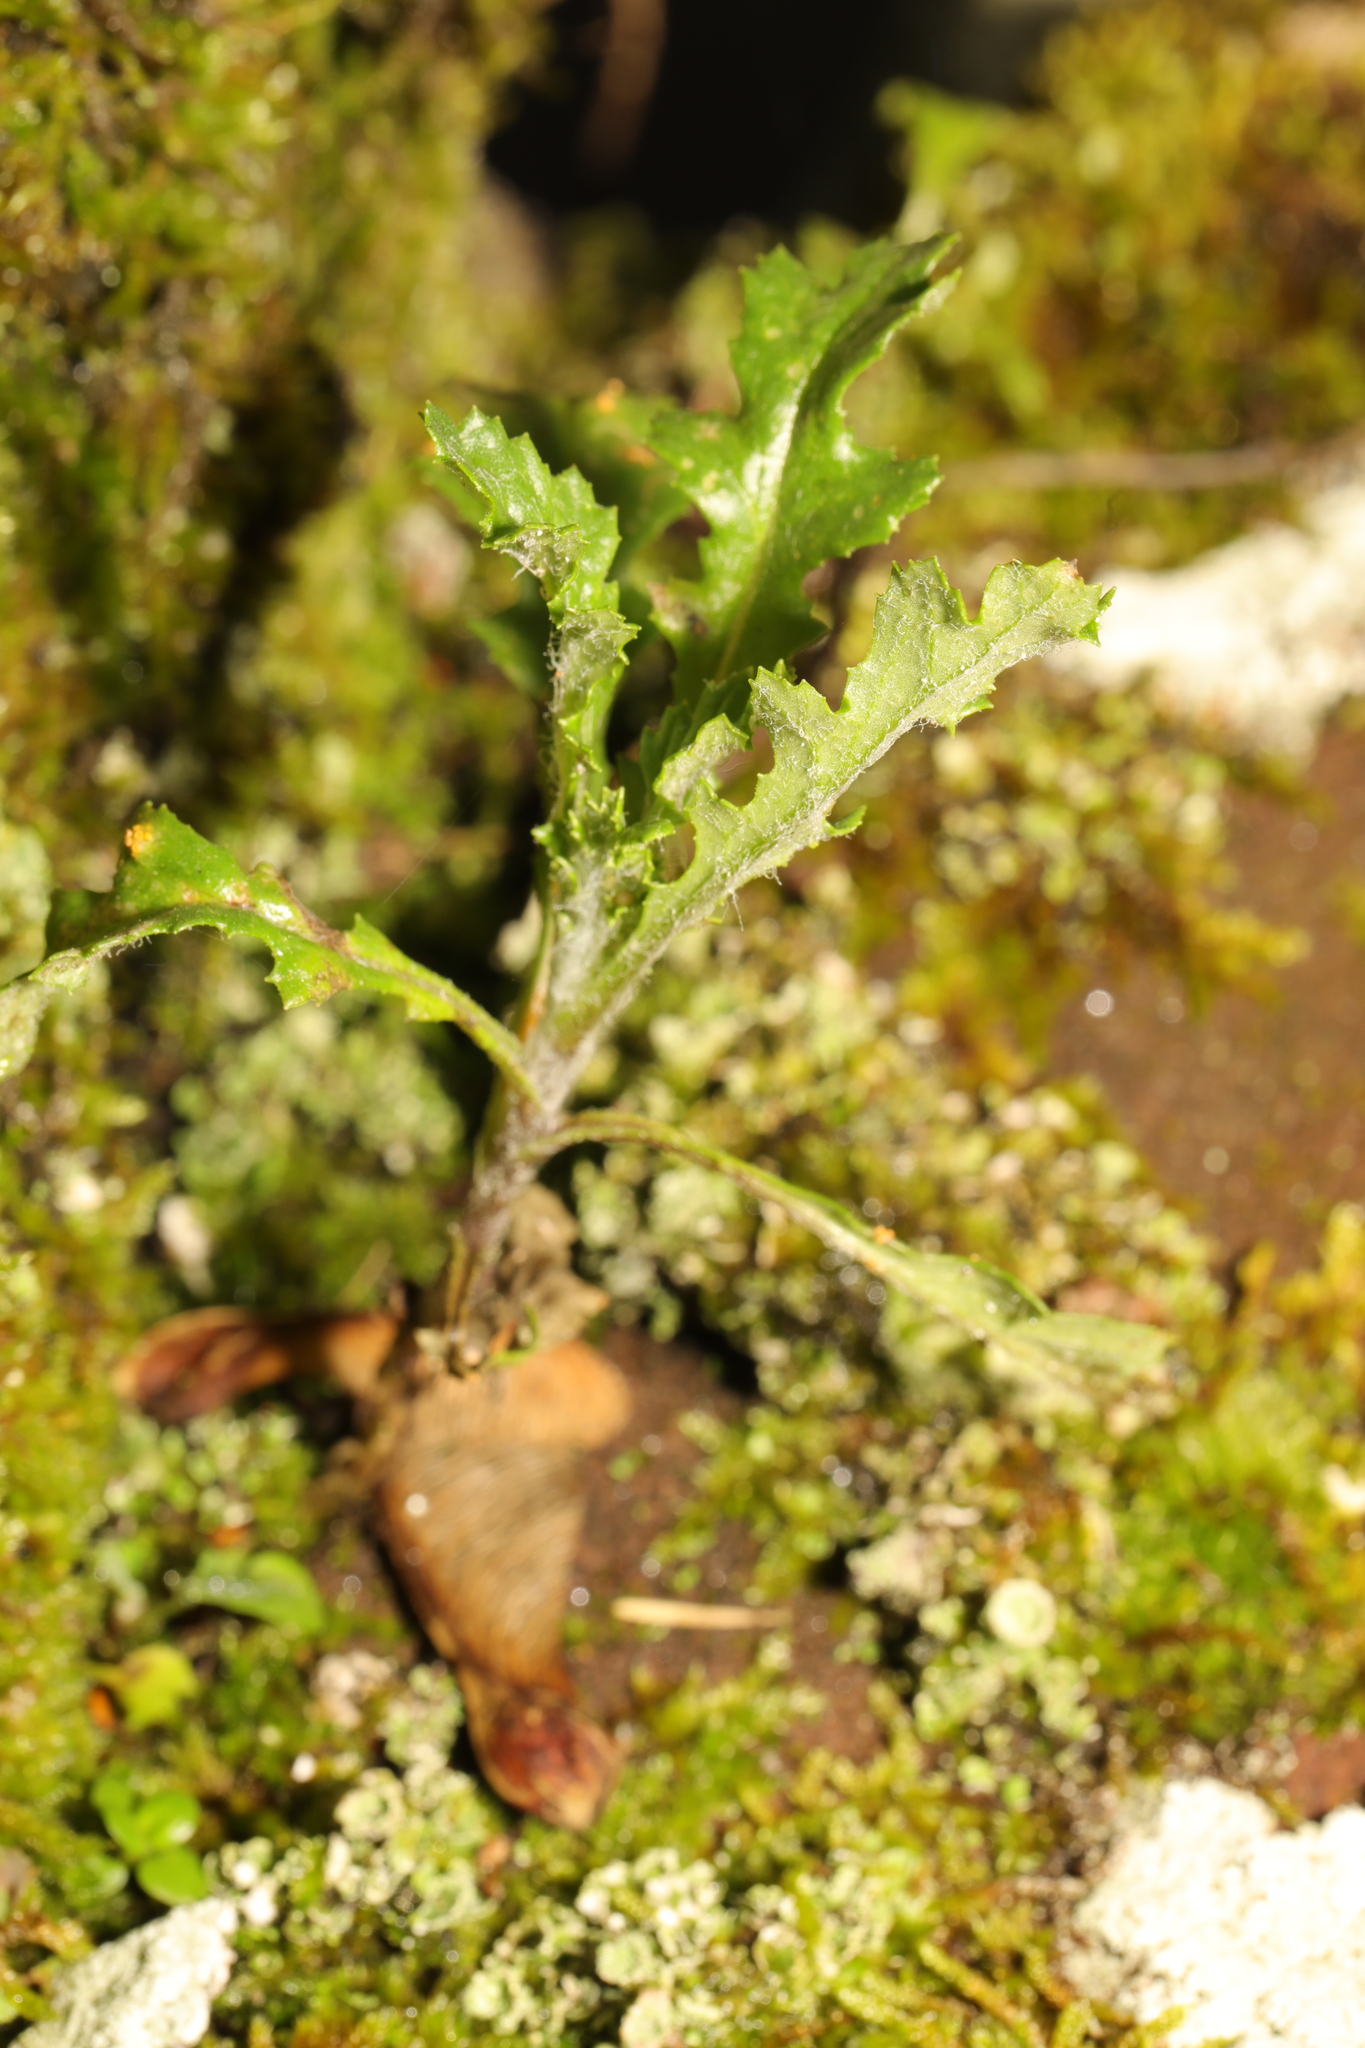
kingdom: Plantae
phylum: Tracheophyta
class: Magnoliopsida
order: Asterales
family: Asteraceae
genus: Senecio
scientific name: Senecio vulgaris
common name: Old-man-in-the-spring
